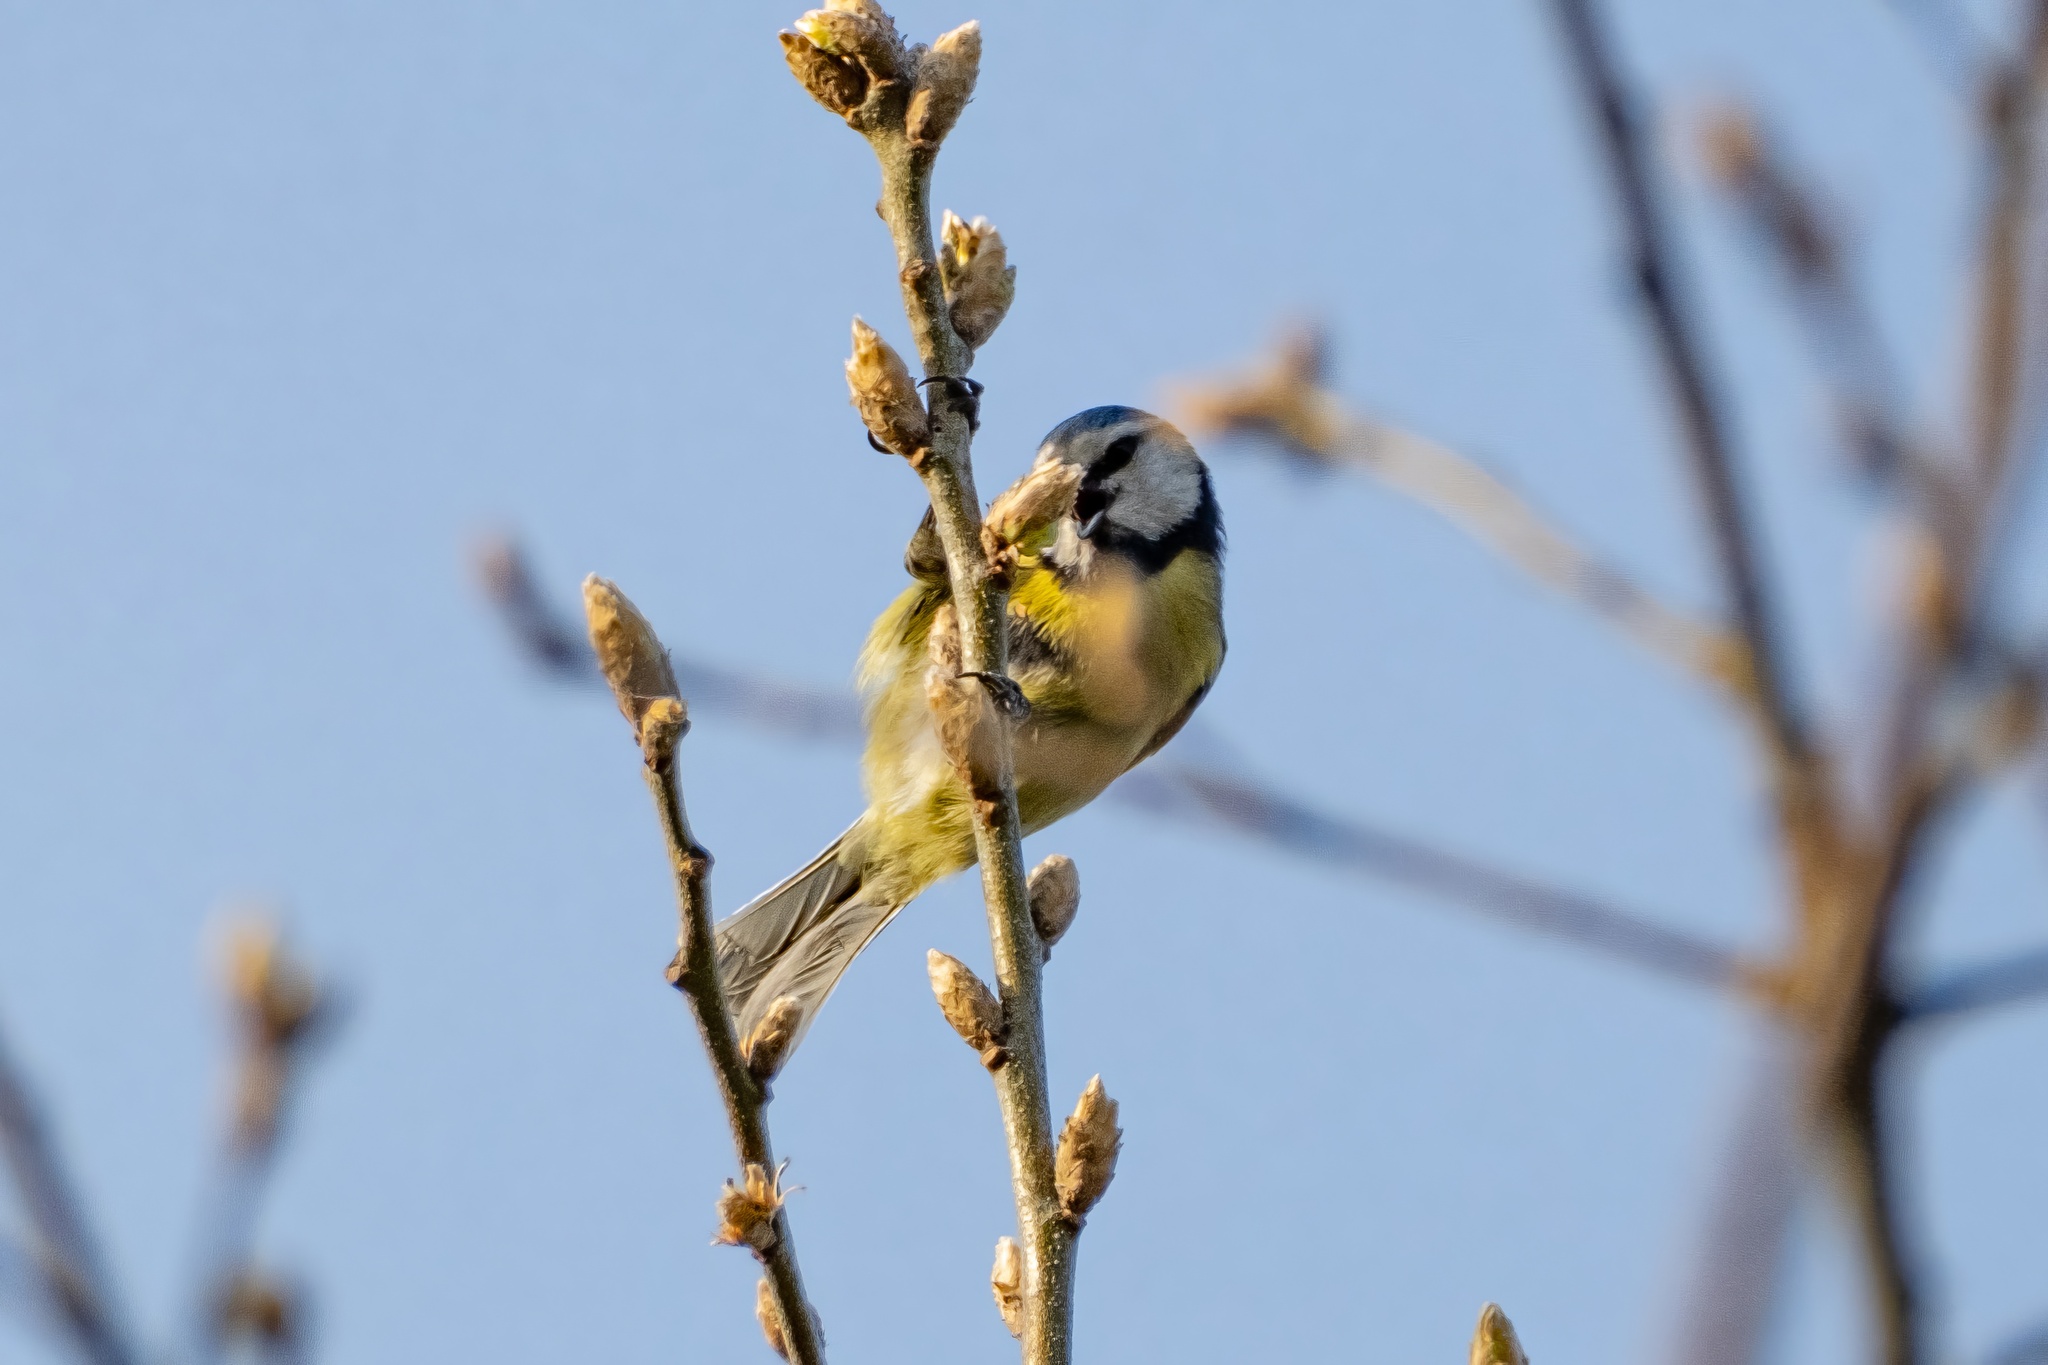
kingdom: Animalia
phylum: Chordata
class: Aves
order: Passeriformes
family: Paridae
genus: Cyanistes
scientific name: Cyanistes caeruleus
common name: Eurasian blue tit
